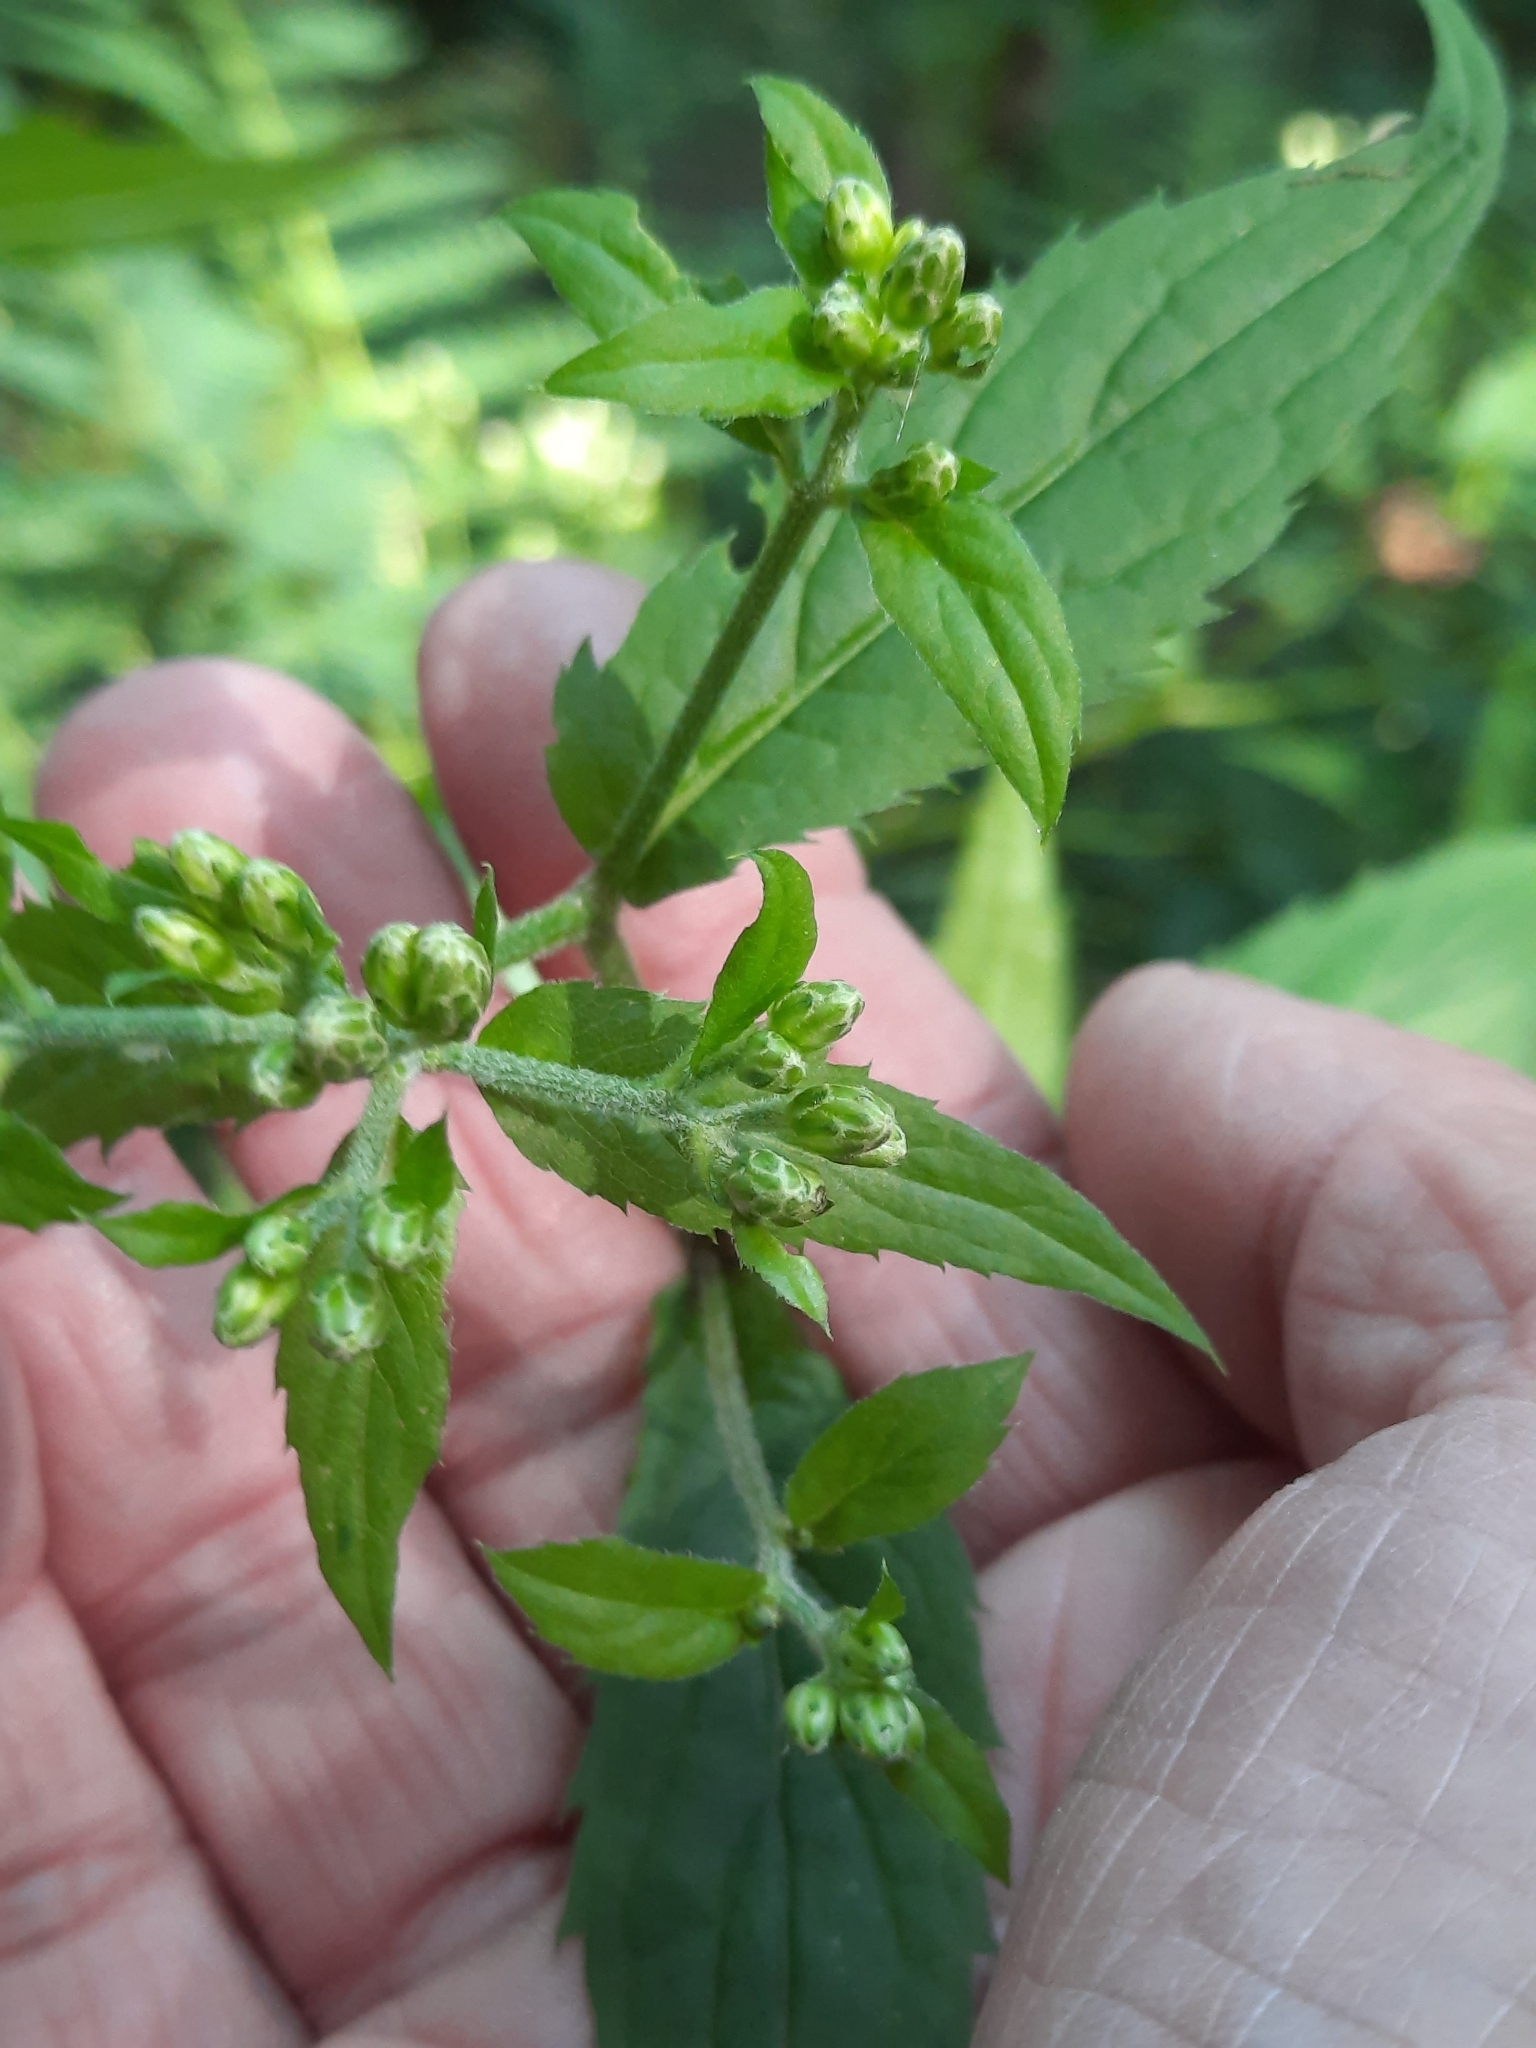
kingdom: Plantae
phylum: Tracheophyta
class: Magnoliopsida
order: Asterales
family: Asteraceae
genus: Eurybia
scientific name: Eurybia divaricata
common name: White wood aster
